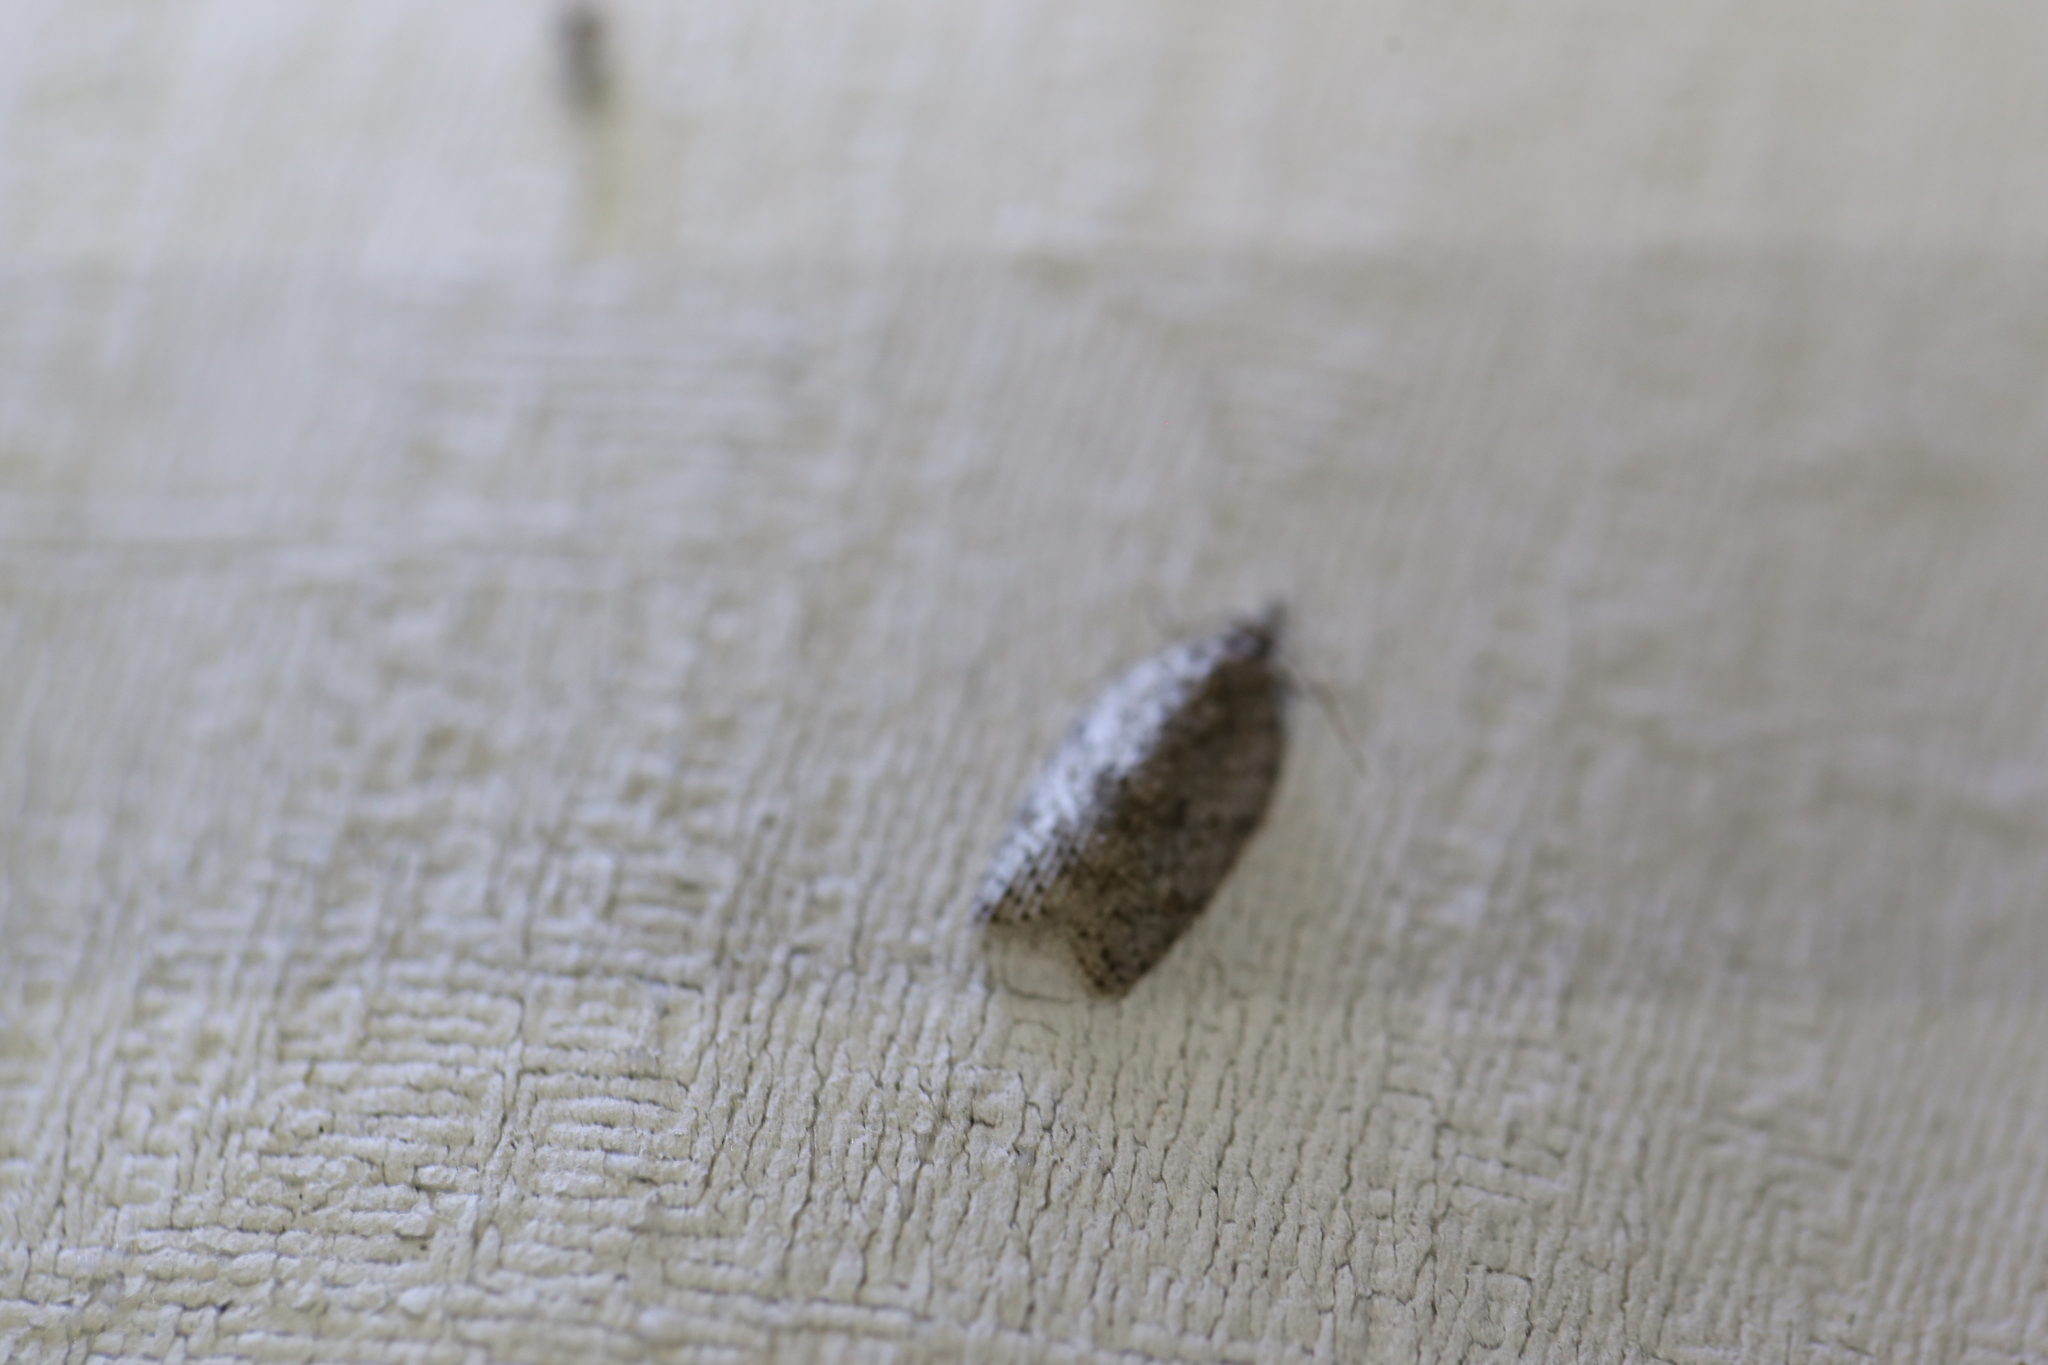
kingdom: Animalia
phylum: Arthropoda
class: Insecta
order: Lepidoptera
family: Tortricidae
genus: Isotenes
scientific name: Isotenes miserana
